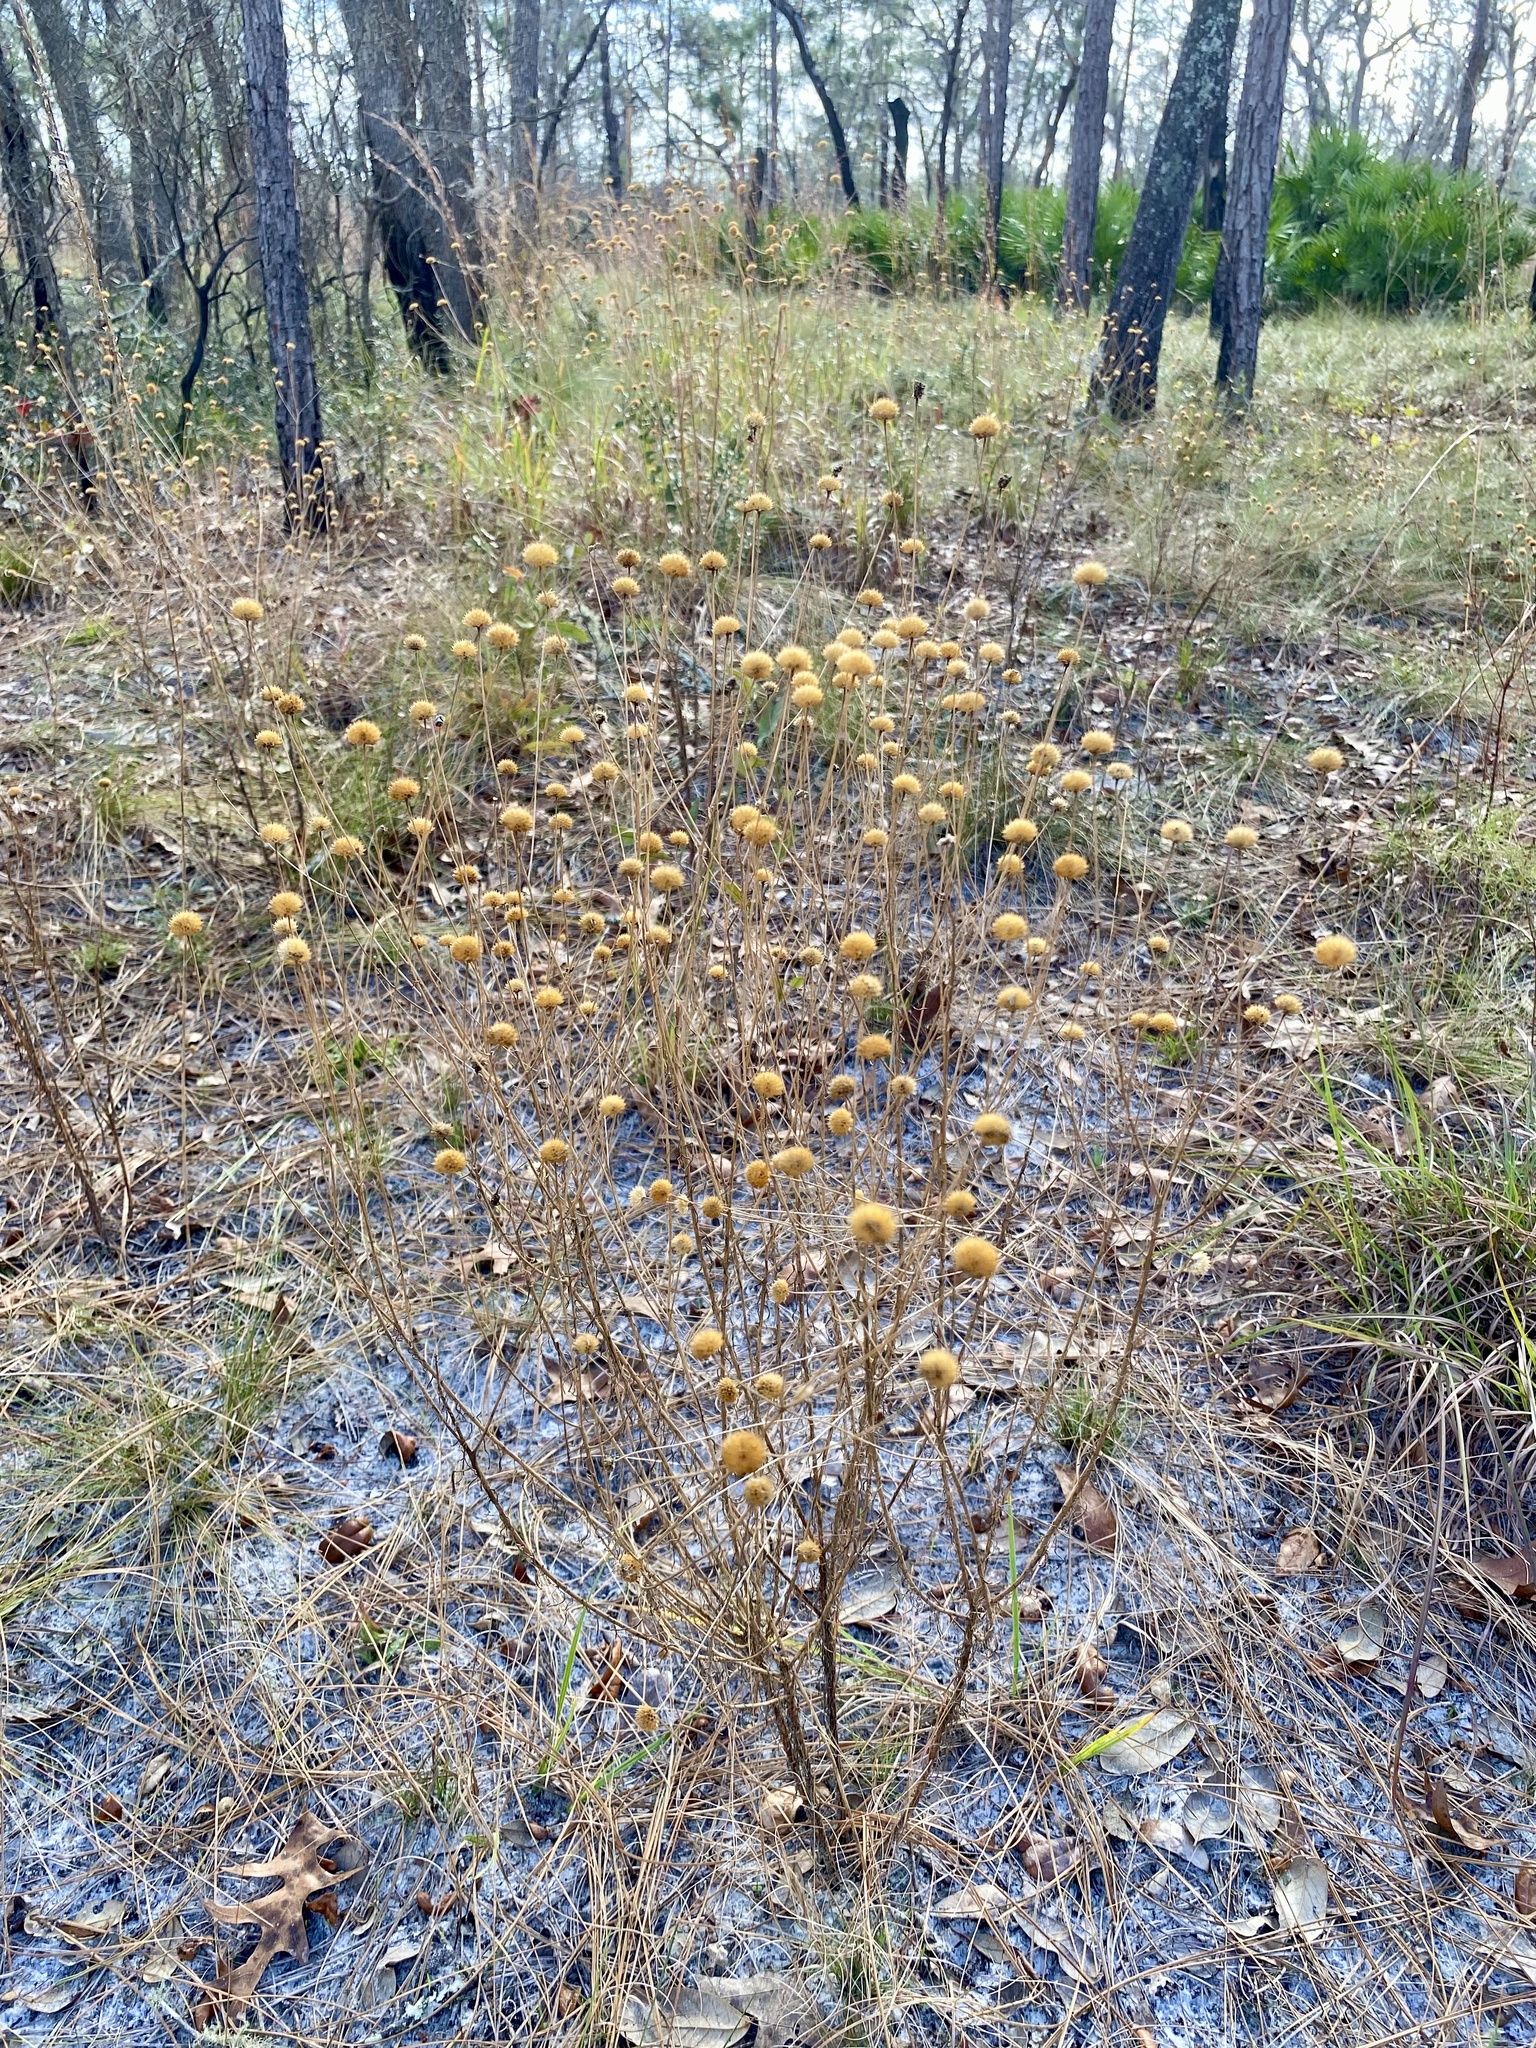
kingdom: Plantae
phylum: Tracheophyta
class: Magnoliopsida
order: Asterales
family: Asteraceae
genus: Balduina
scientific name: Balduina angustifolia
